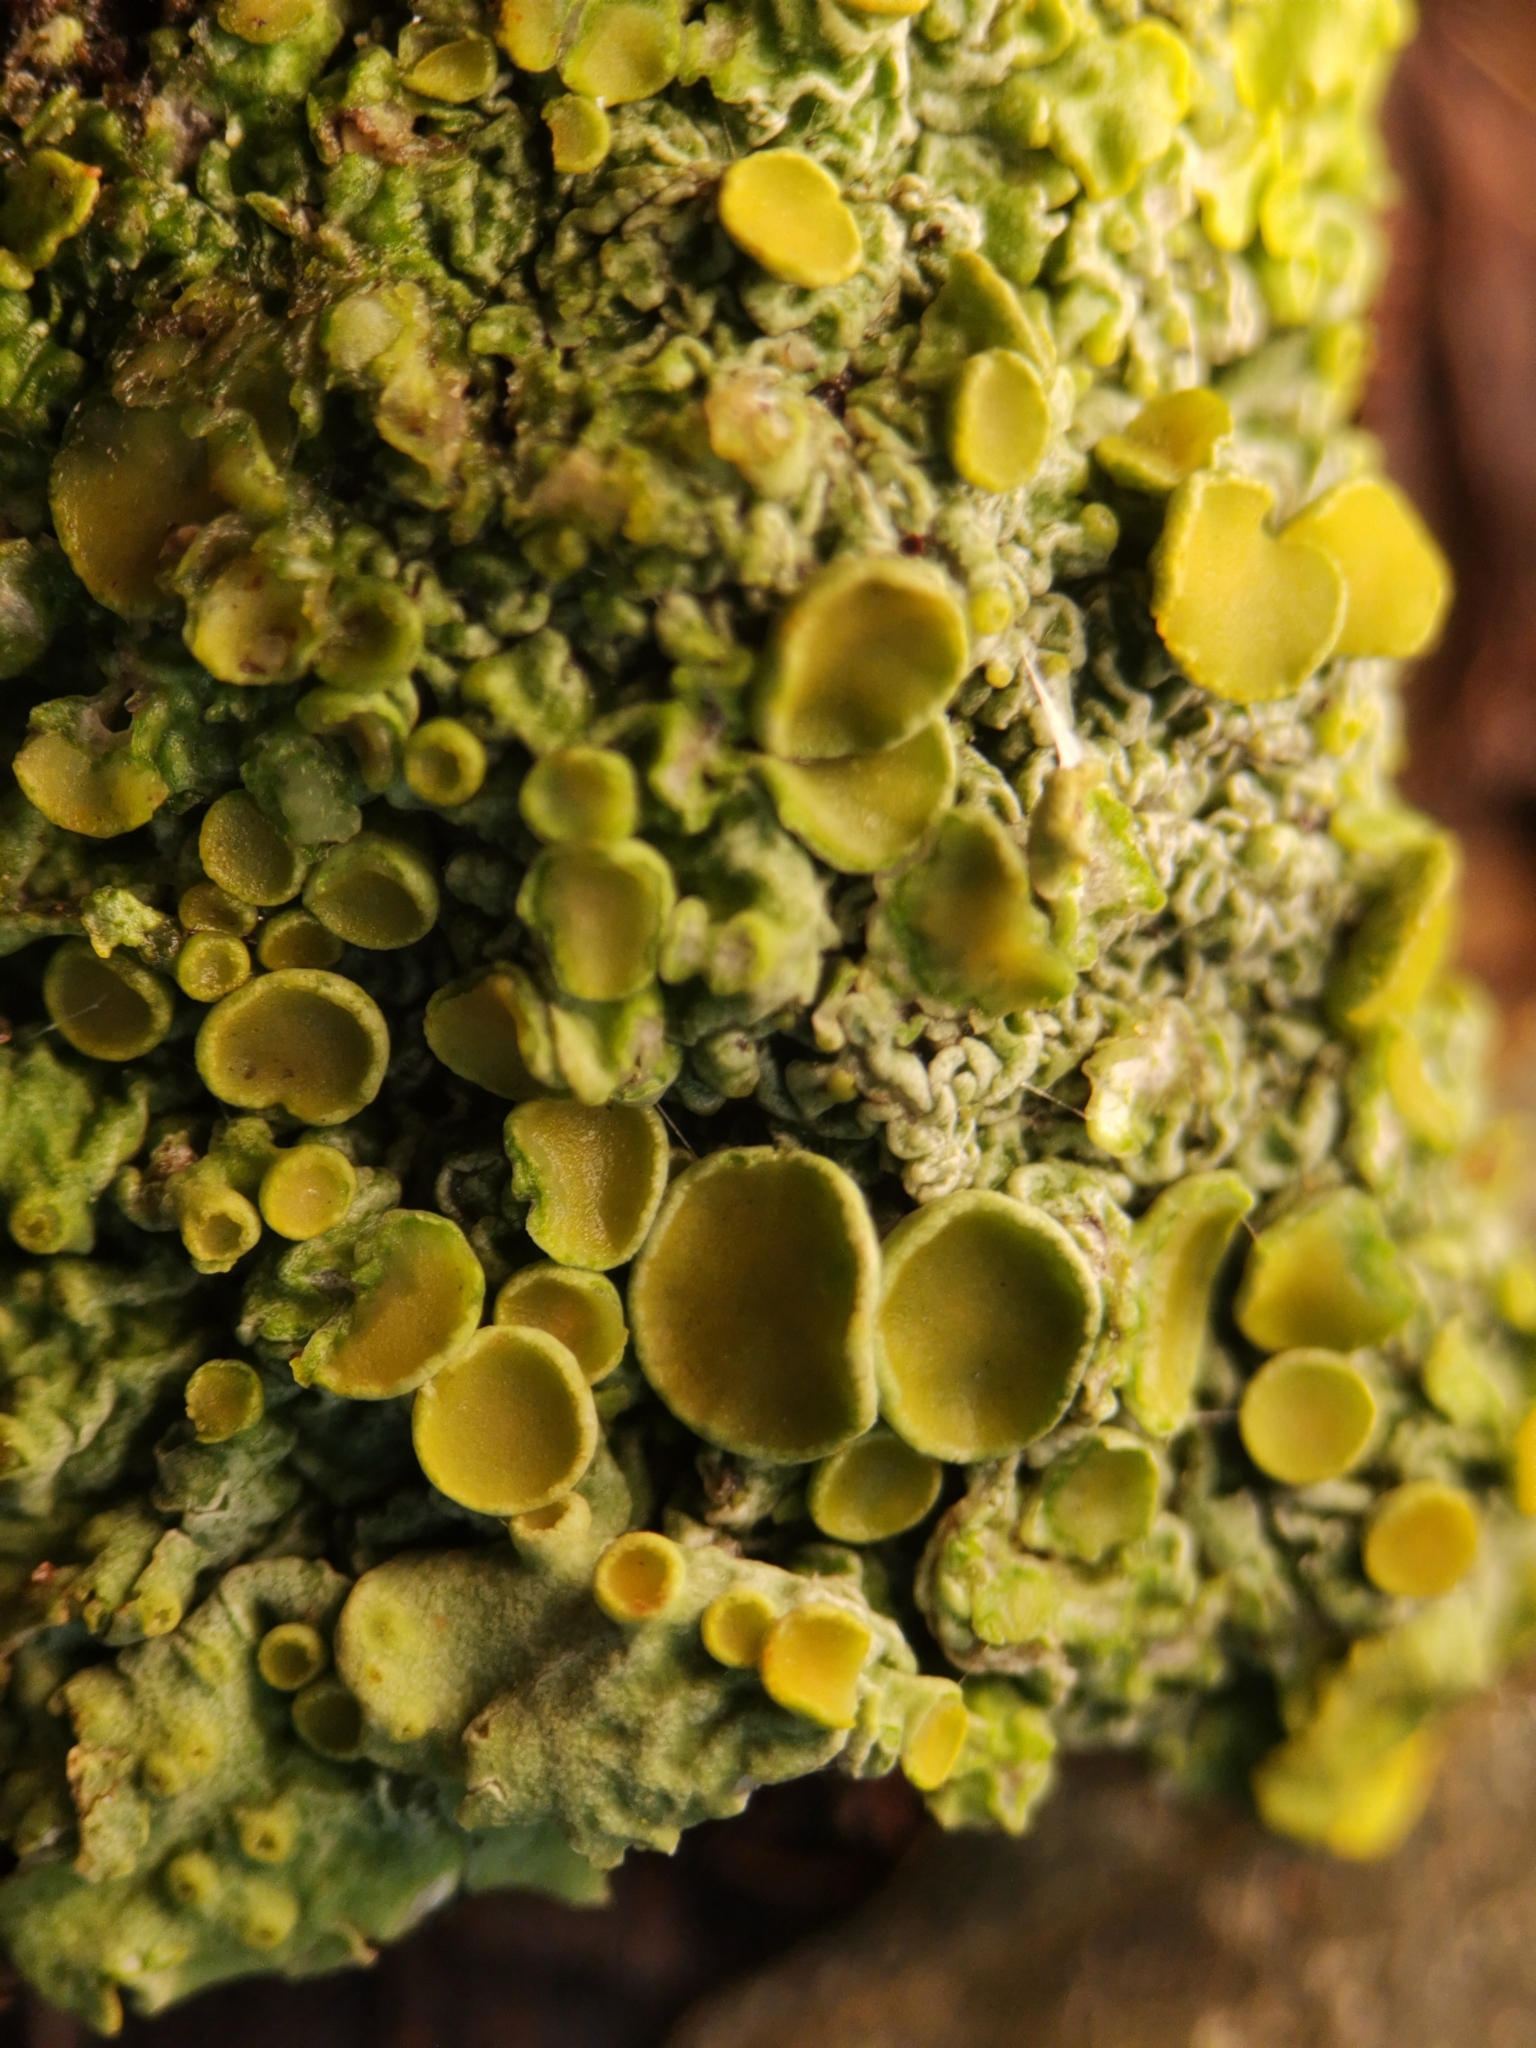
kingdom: Fungi
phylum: Ascomycota
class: Lecanoromycetes
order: Teloschistales
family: Teloschistaceae
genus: Xanthoria
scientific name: Xanthoria parietina
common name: Common orange lichen
